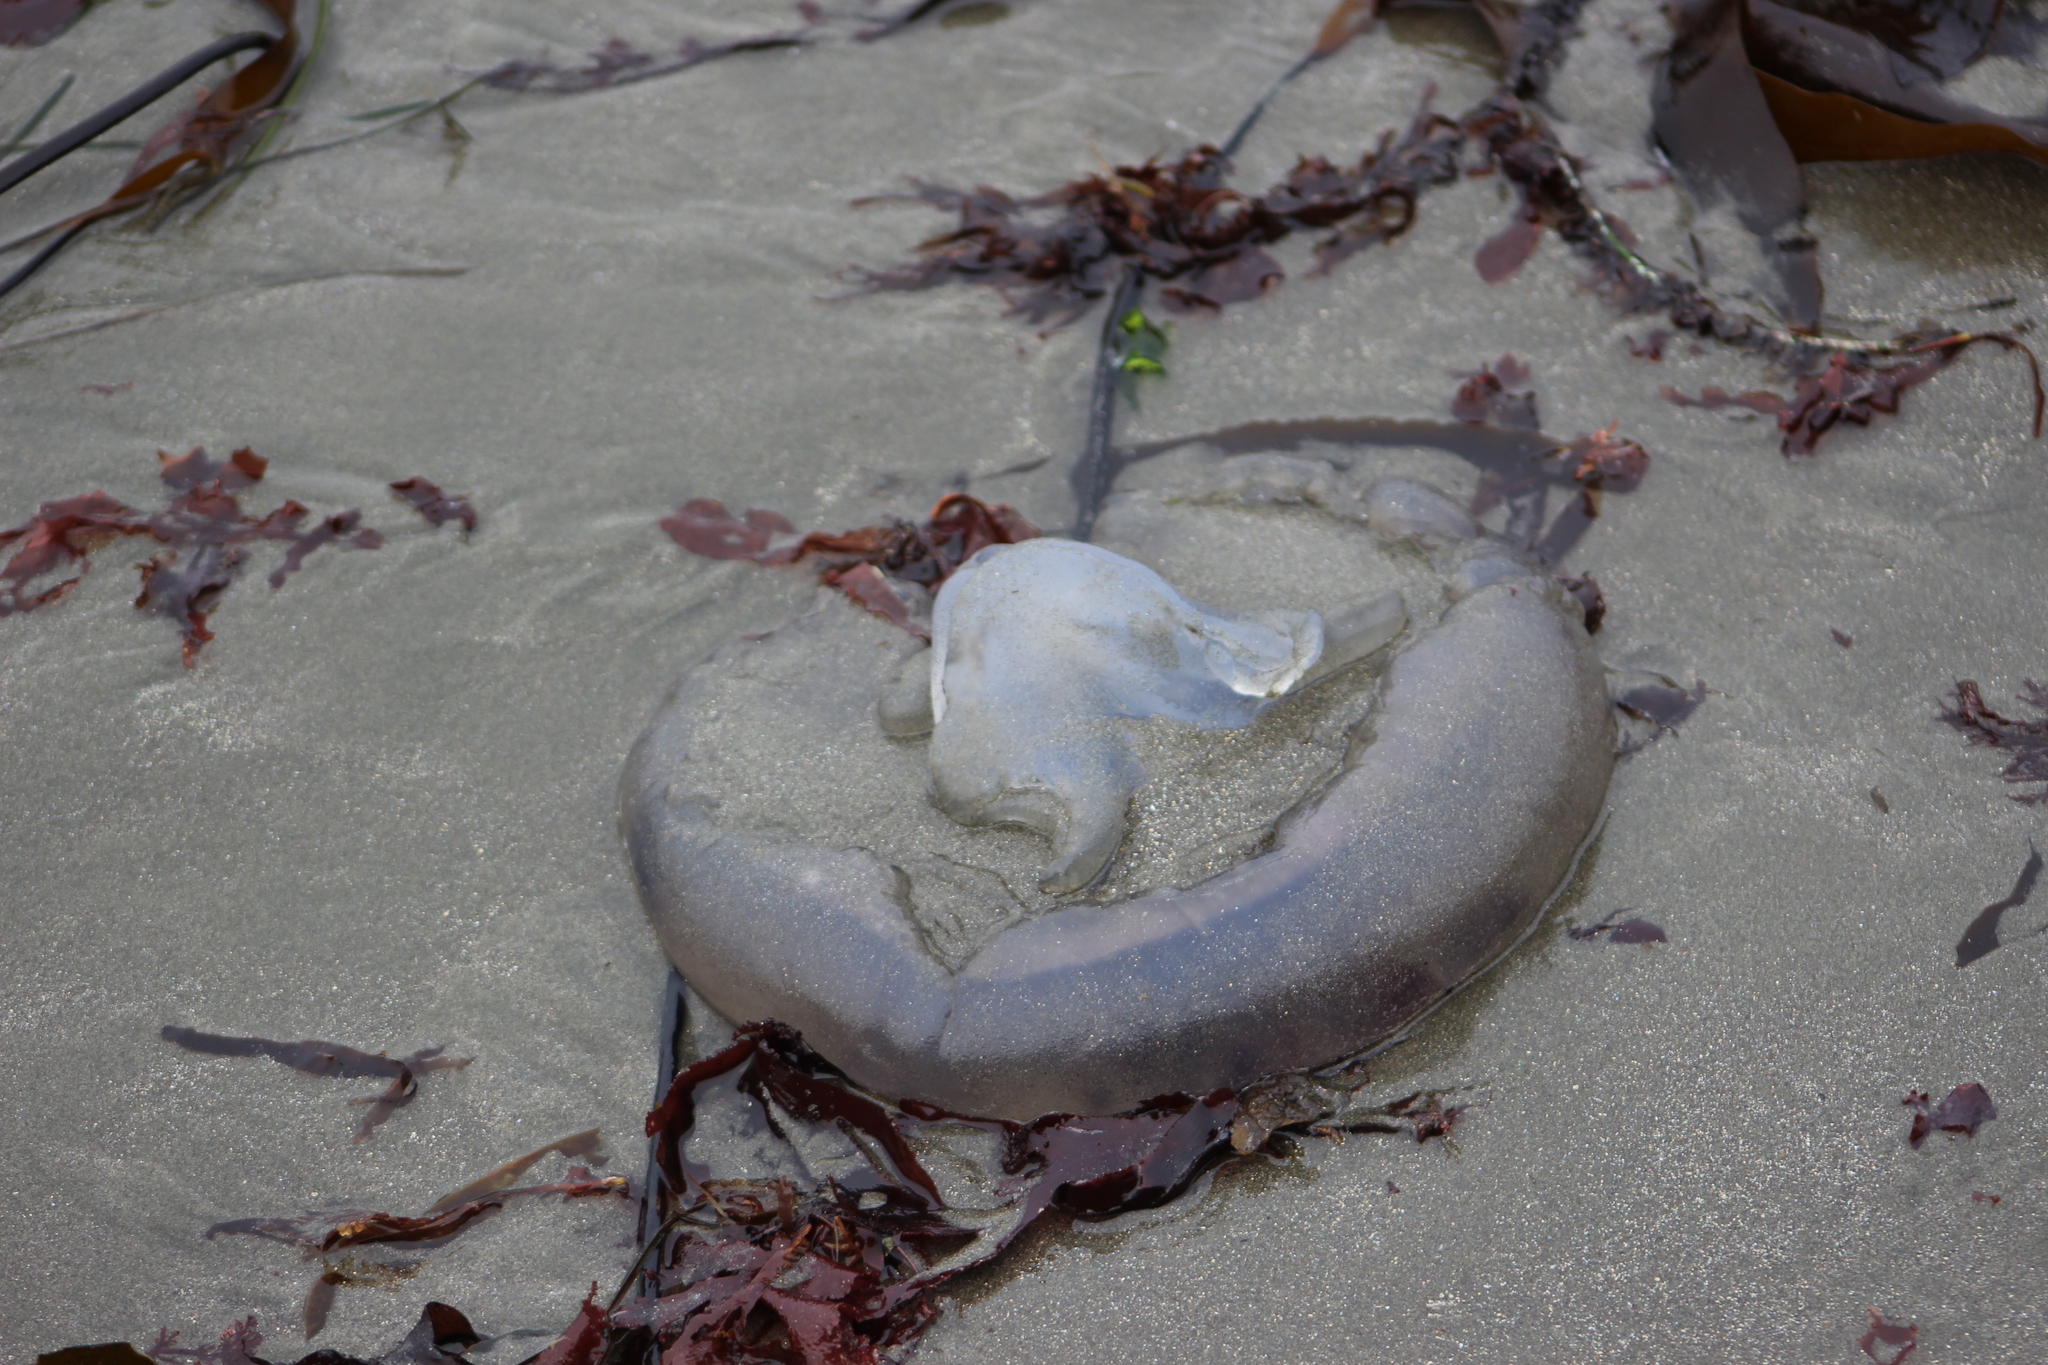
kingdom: Animalia
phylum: Cnidaria
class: Scyphozoa
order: Semaeostomeae
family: Ulmaridae
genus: Aurelia
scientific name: Aurelia labiata
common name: Pacific moon jelly
